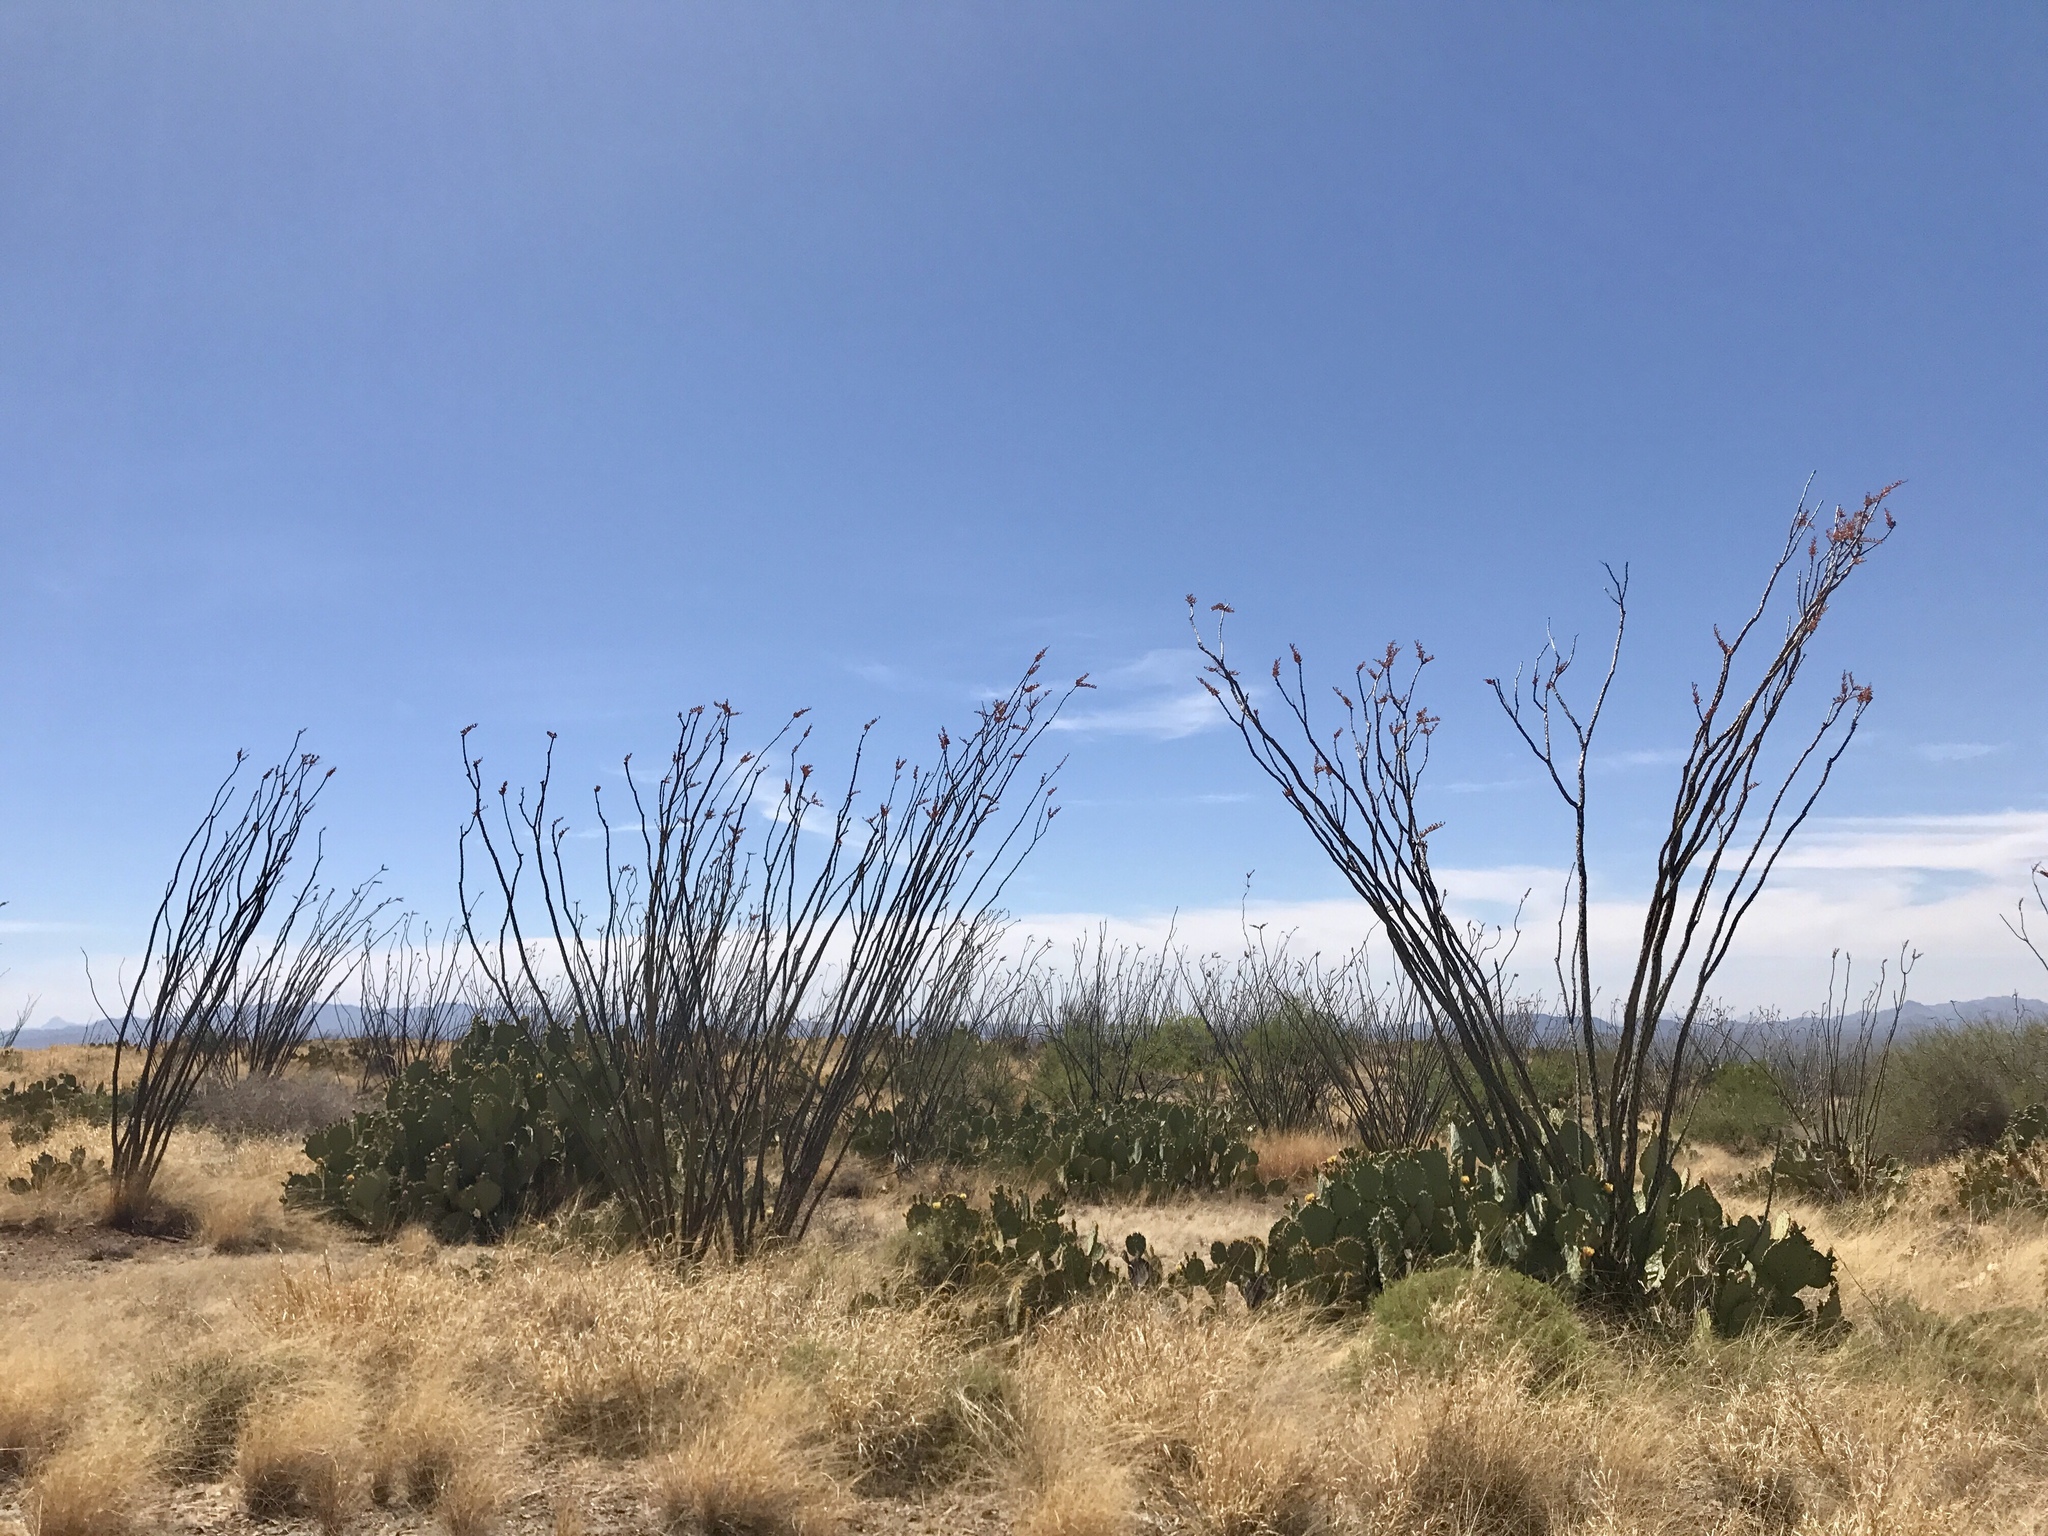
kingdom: Plantae
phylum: Tracheophyta
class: Magnoliopsida
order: Ericales
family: Fouquieriaceae
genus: Fouquieria
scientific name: Fouquieria splendens
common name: Vine-cactus
